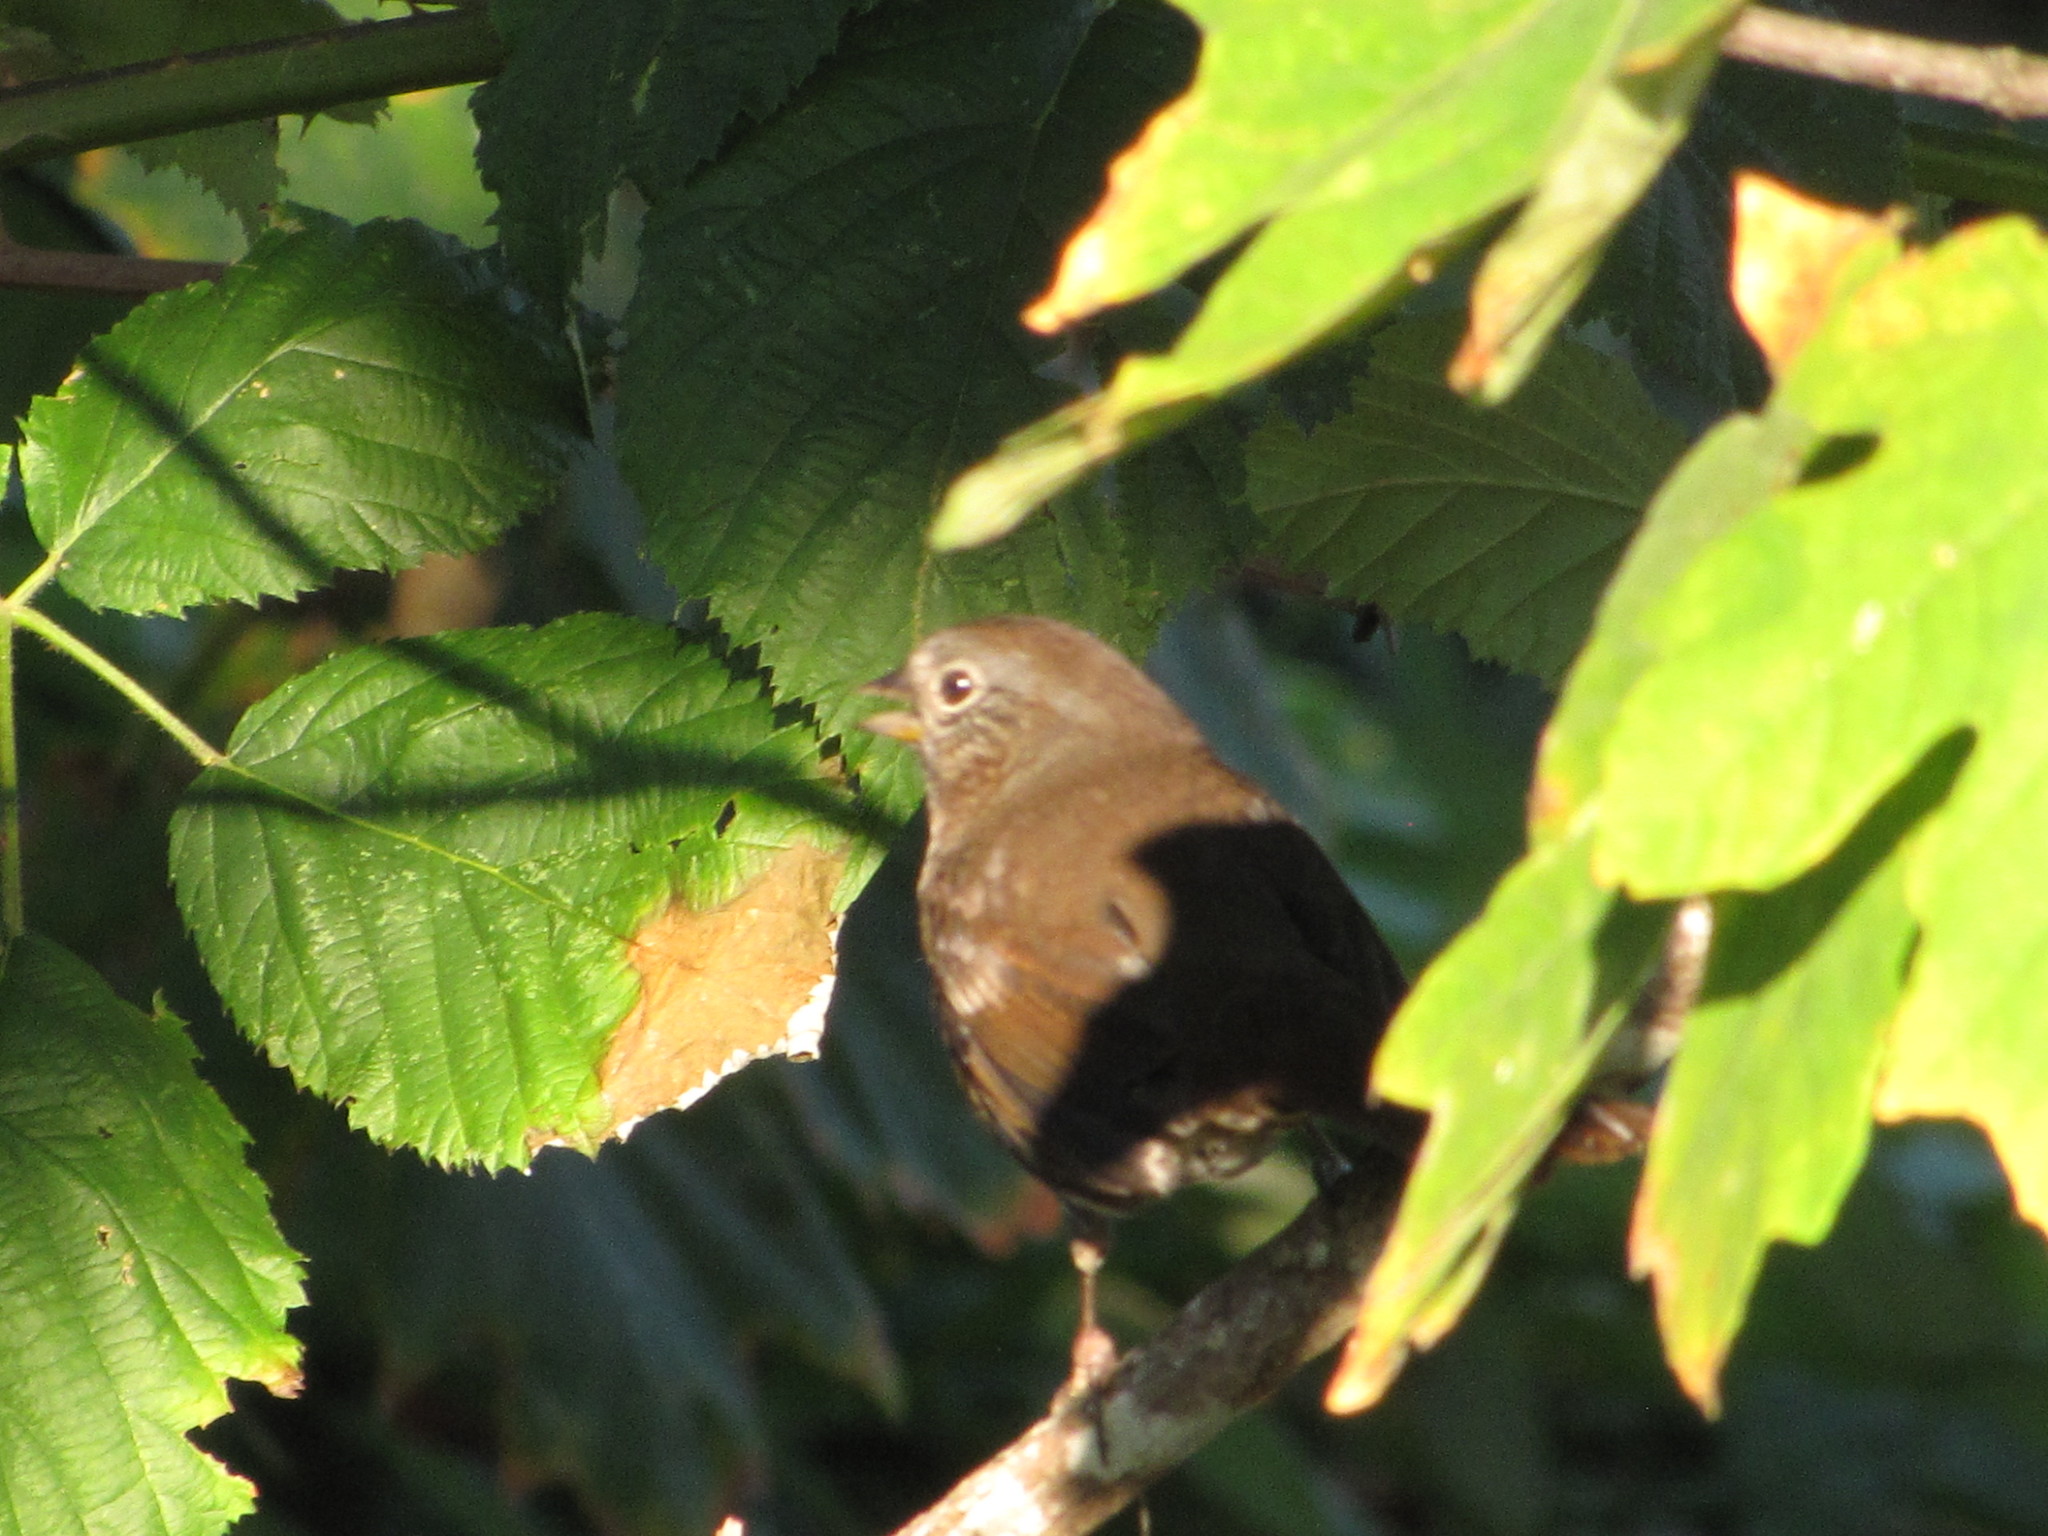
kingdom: Animalia
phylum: Chordata
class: Aves
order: Passeriformes
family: Passerellidae
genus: Passerella
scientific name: Passerella iliaca
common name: Fox sparrow
